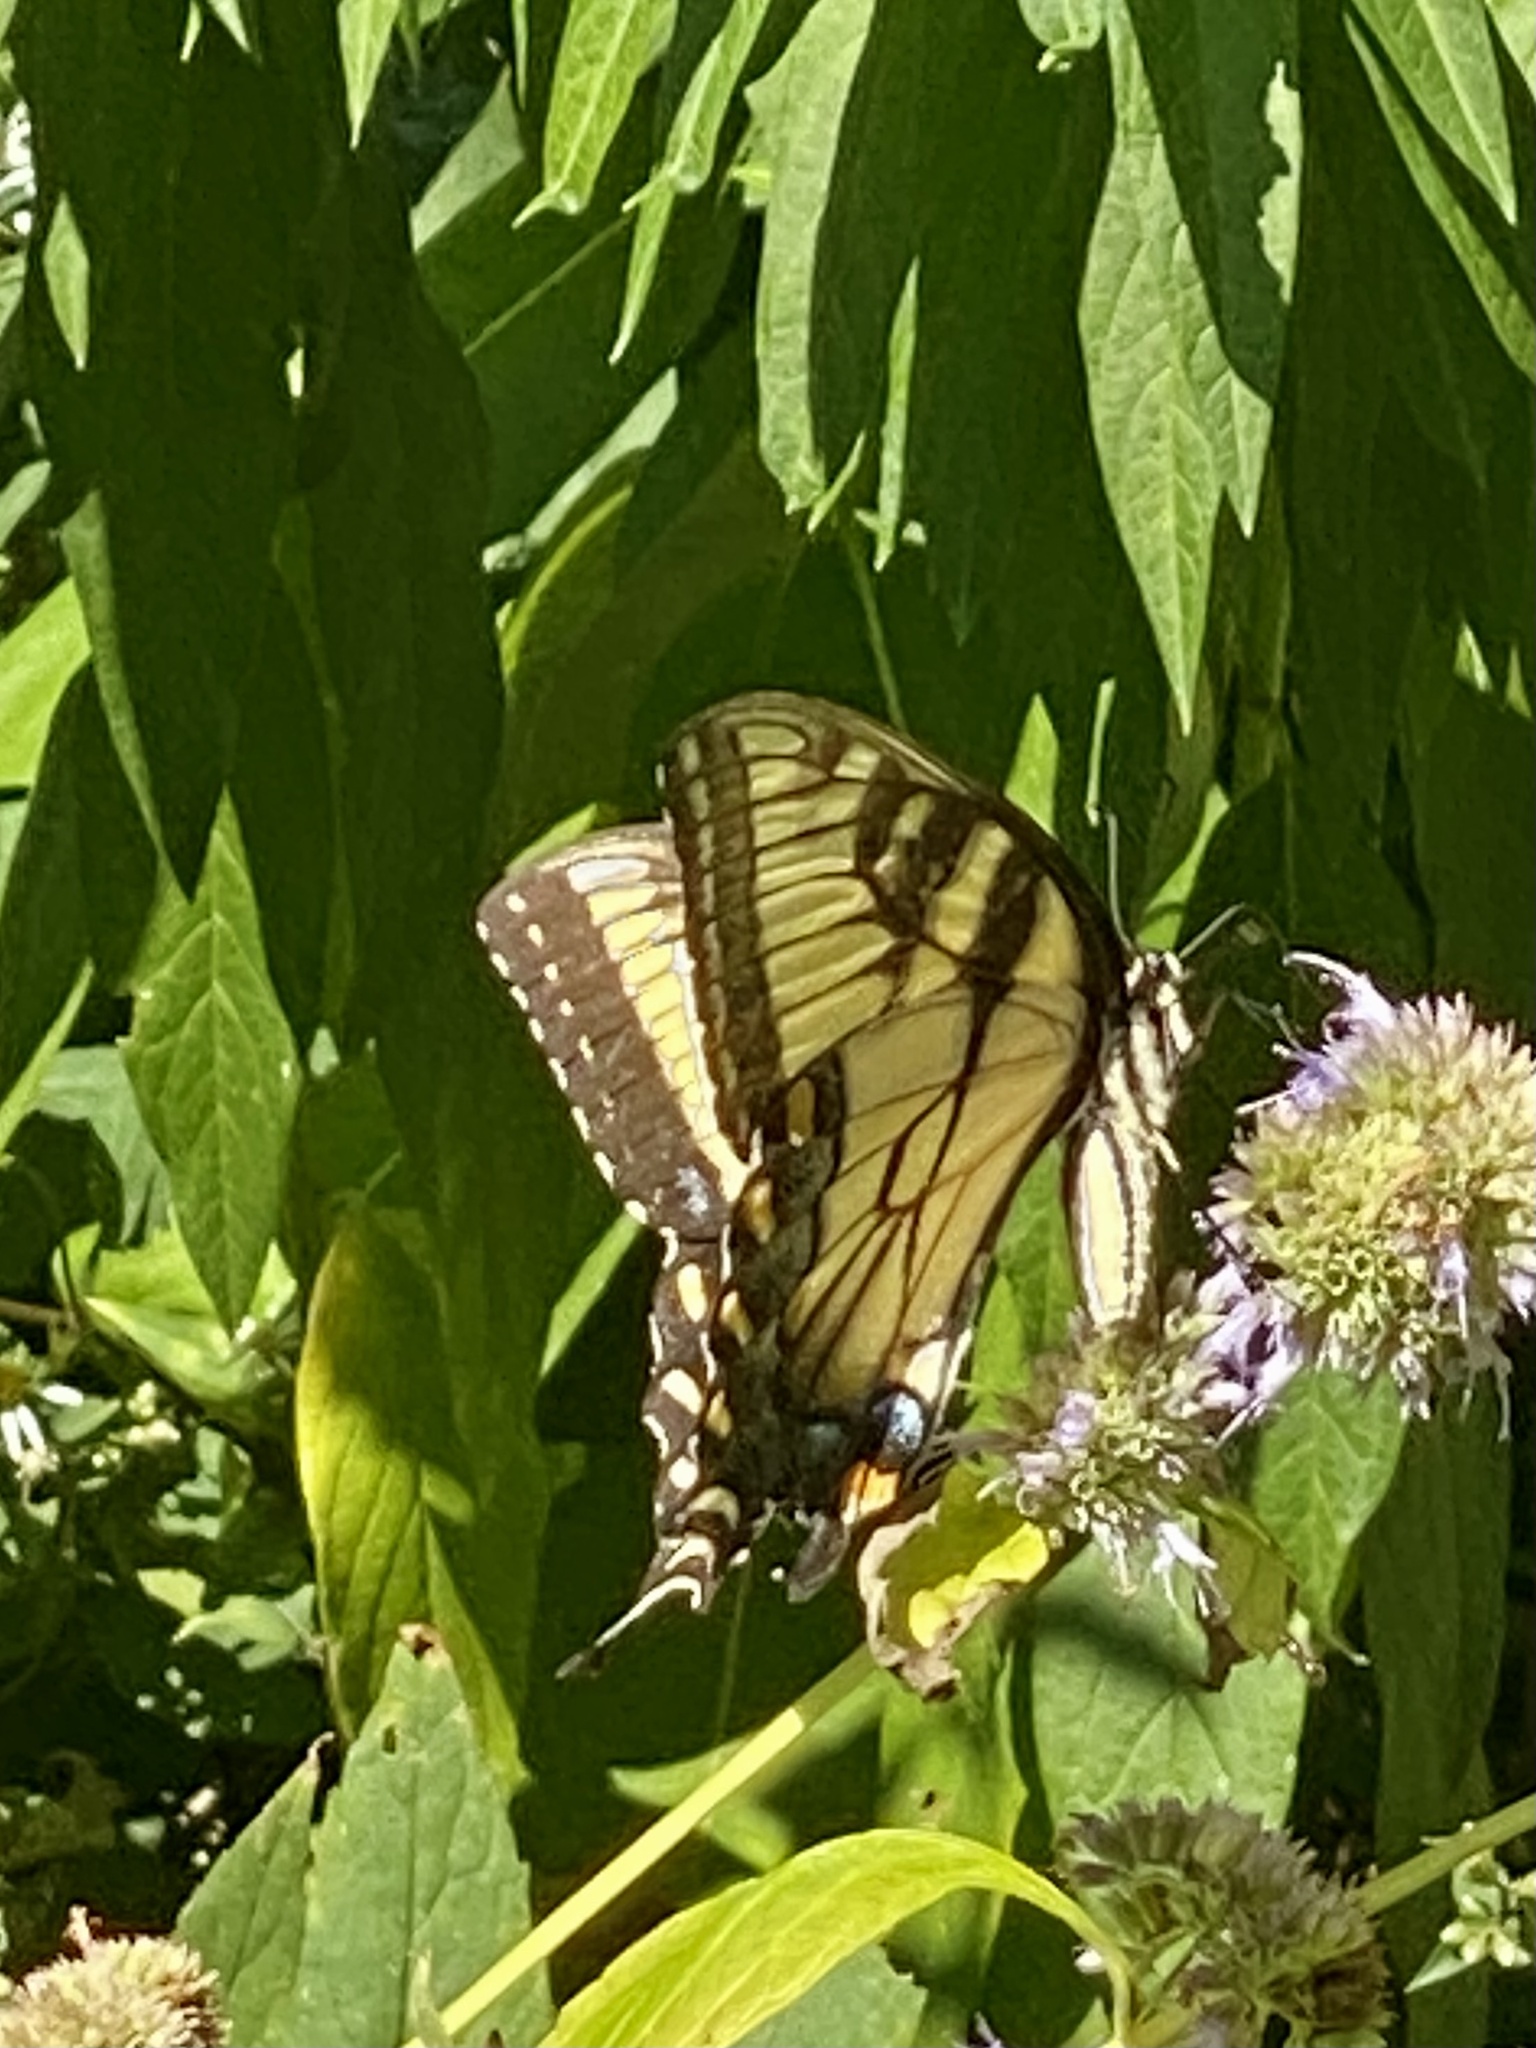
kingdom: Animalia
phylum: Arthropoda
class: Insecta
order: Lepidoptera
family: Papilionidae
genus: Papilio
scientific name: Papilio glaucus
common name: Tiger swallowtail
